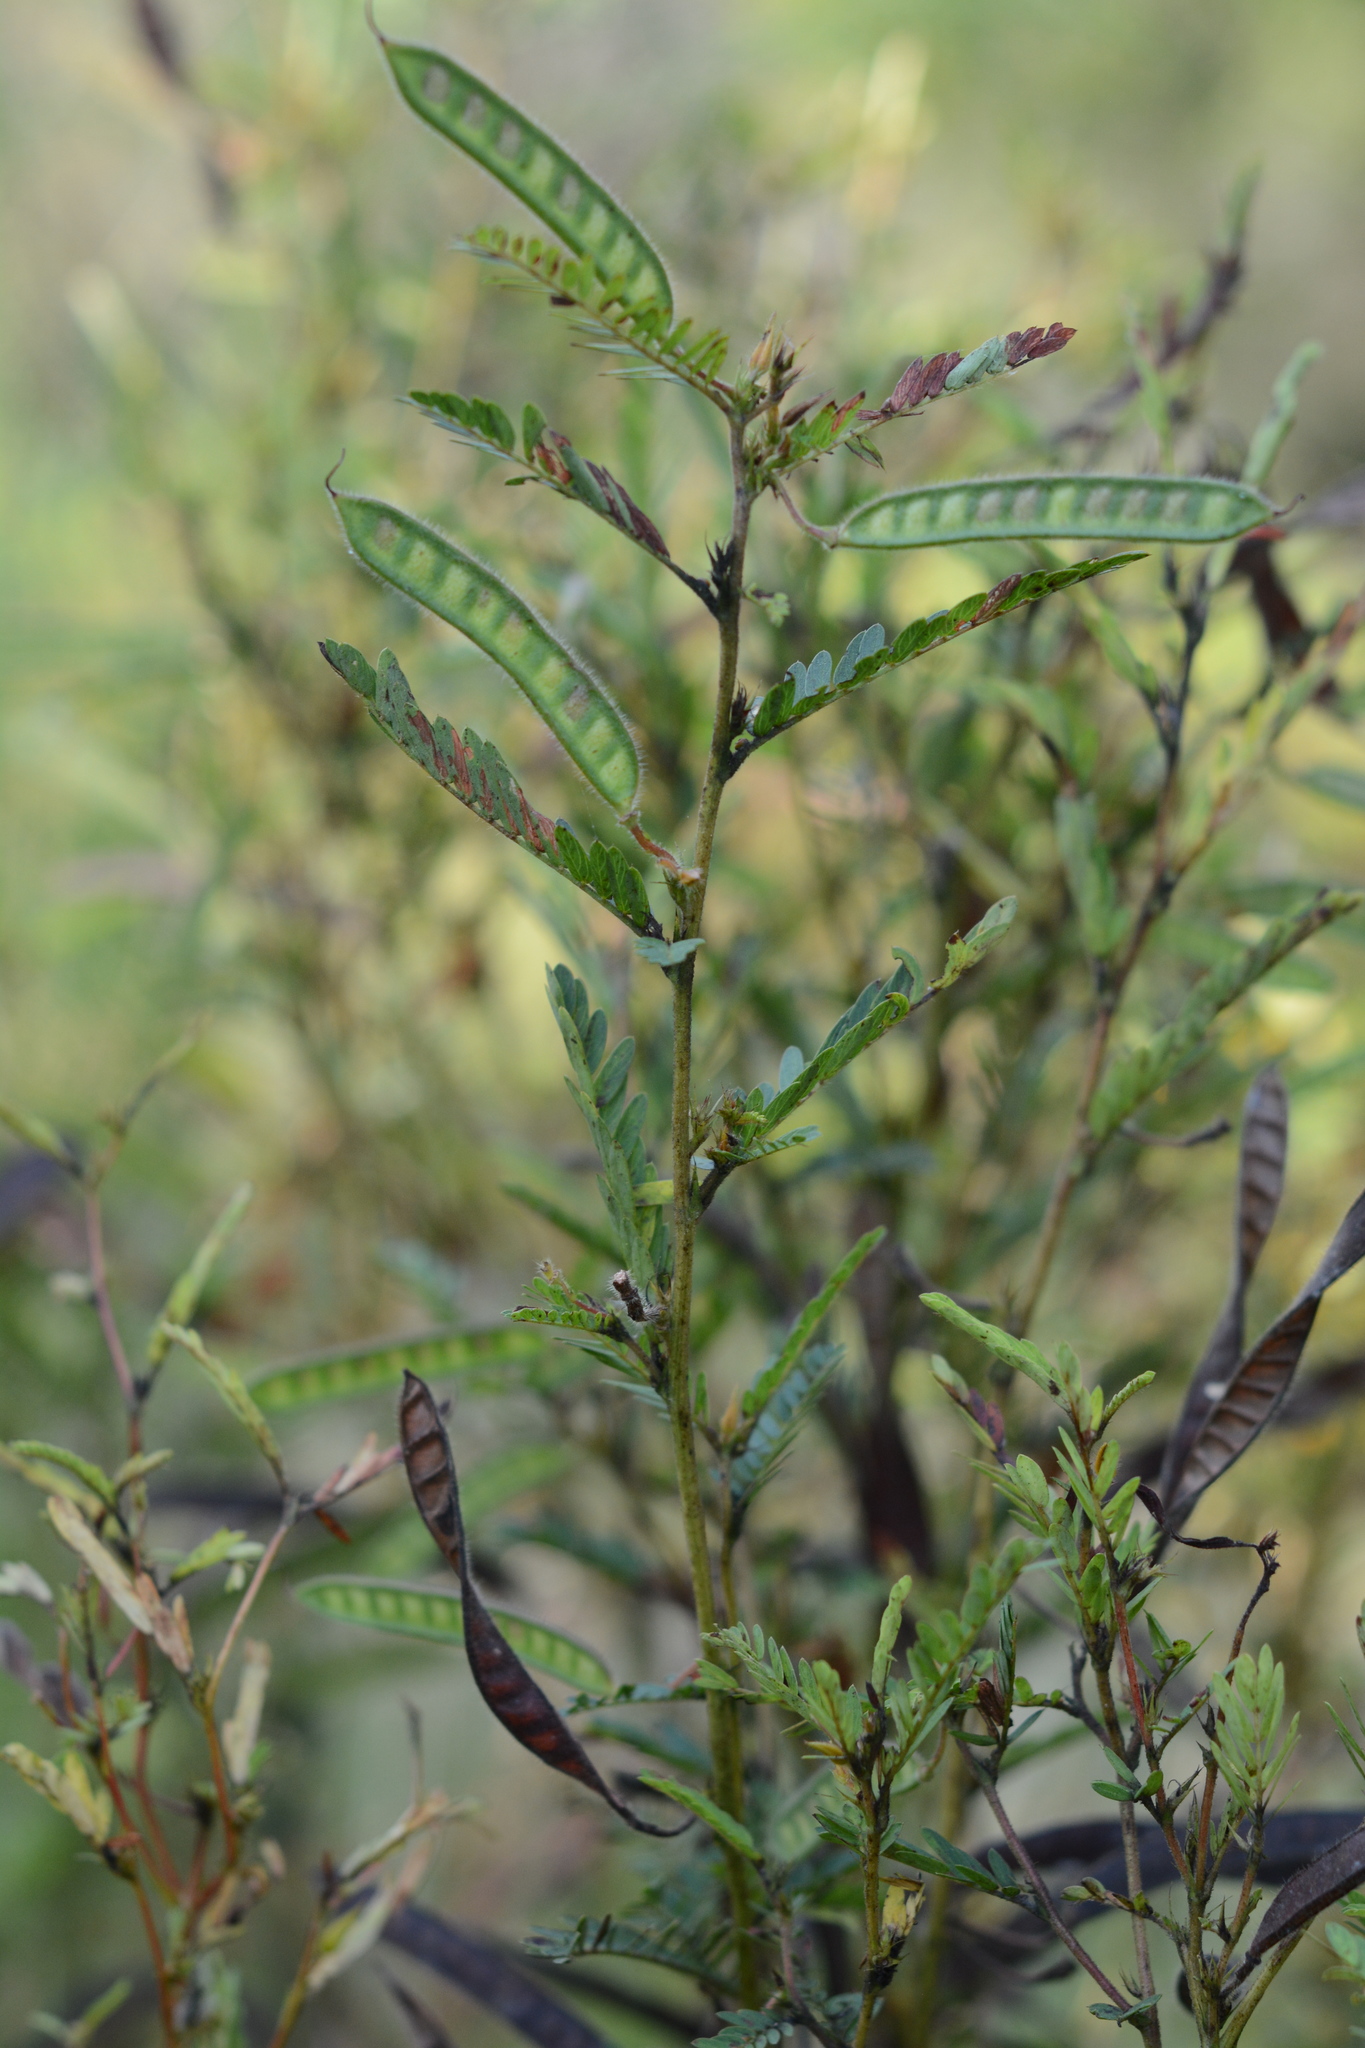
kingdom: Plantae
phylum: Tracheophyta
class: Magnoliopsida
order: Fabales
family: Fabaceae
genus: Chamaecrista
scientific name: Chamaecrista fasciculata
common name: Golden cassia
